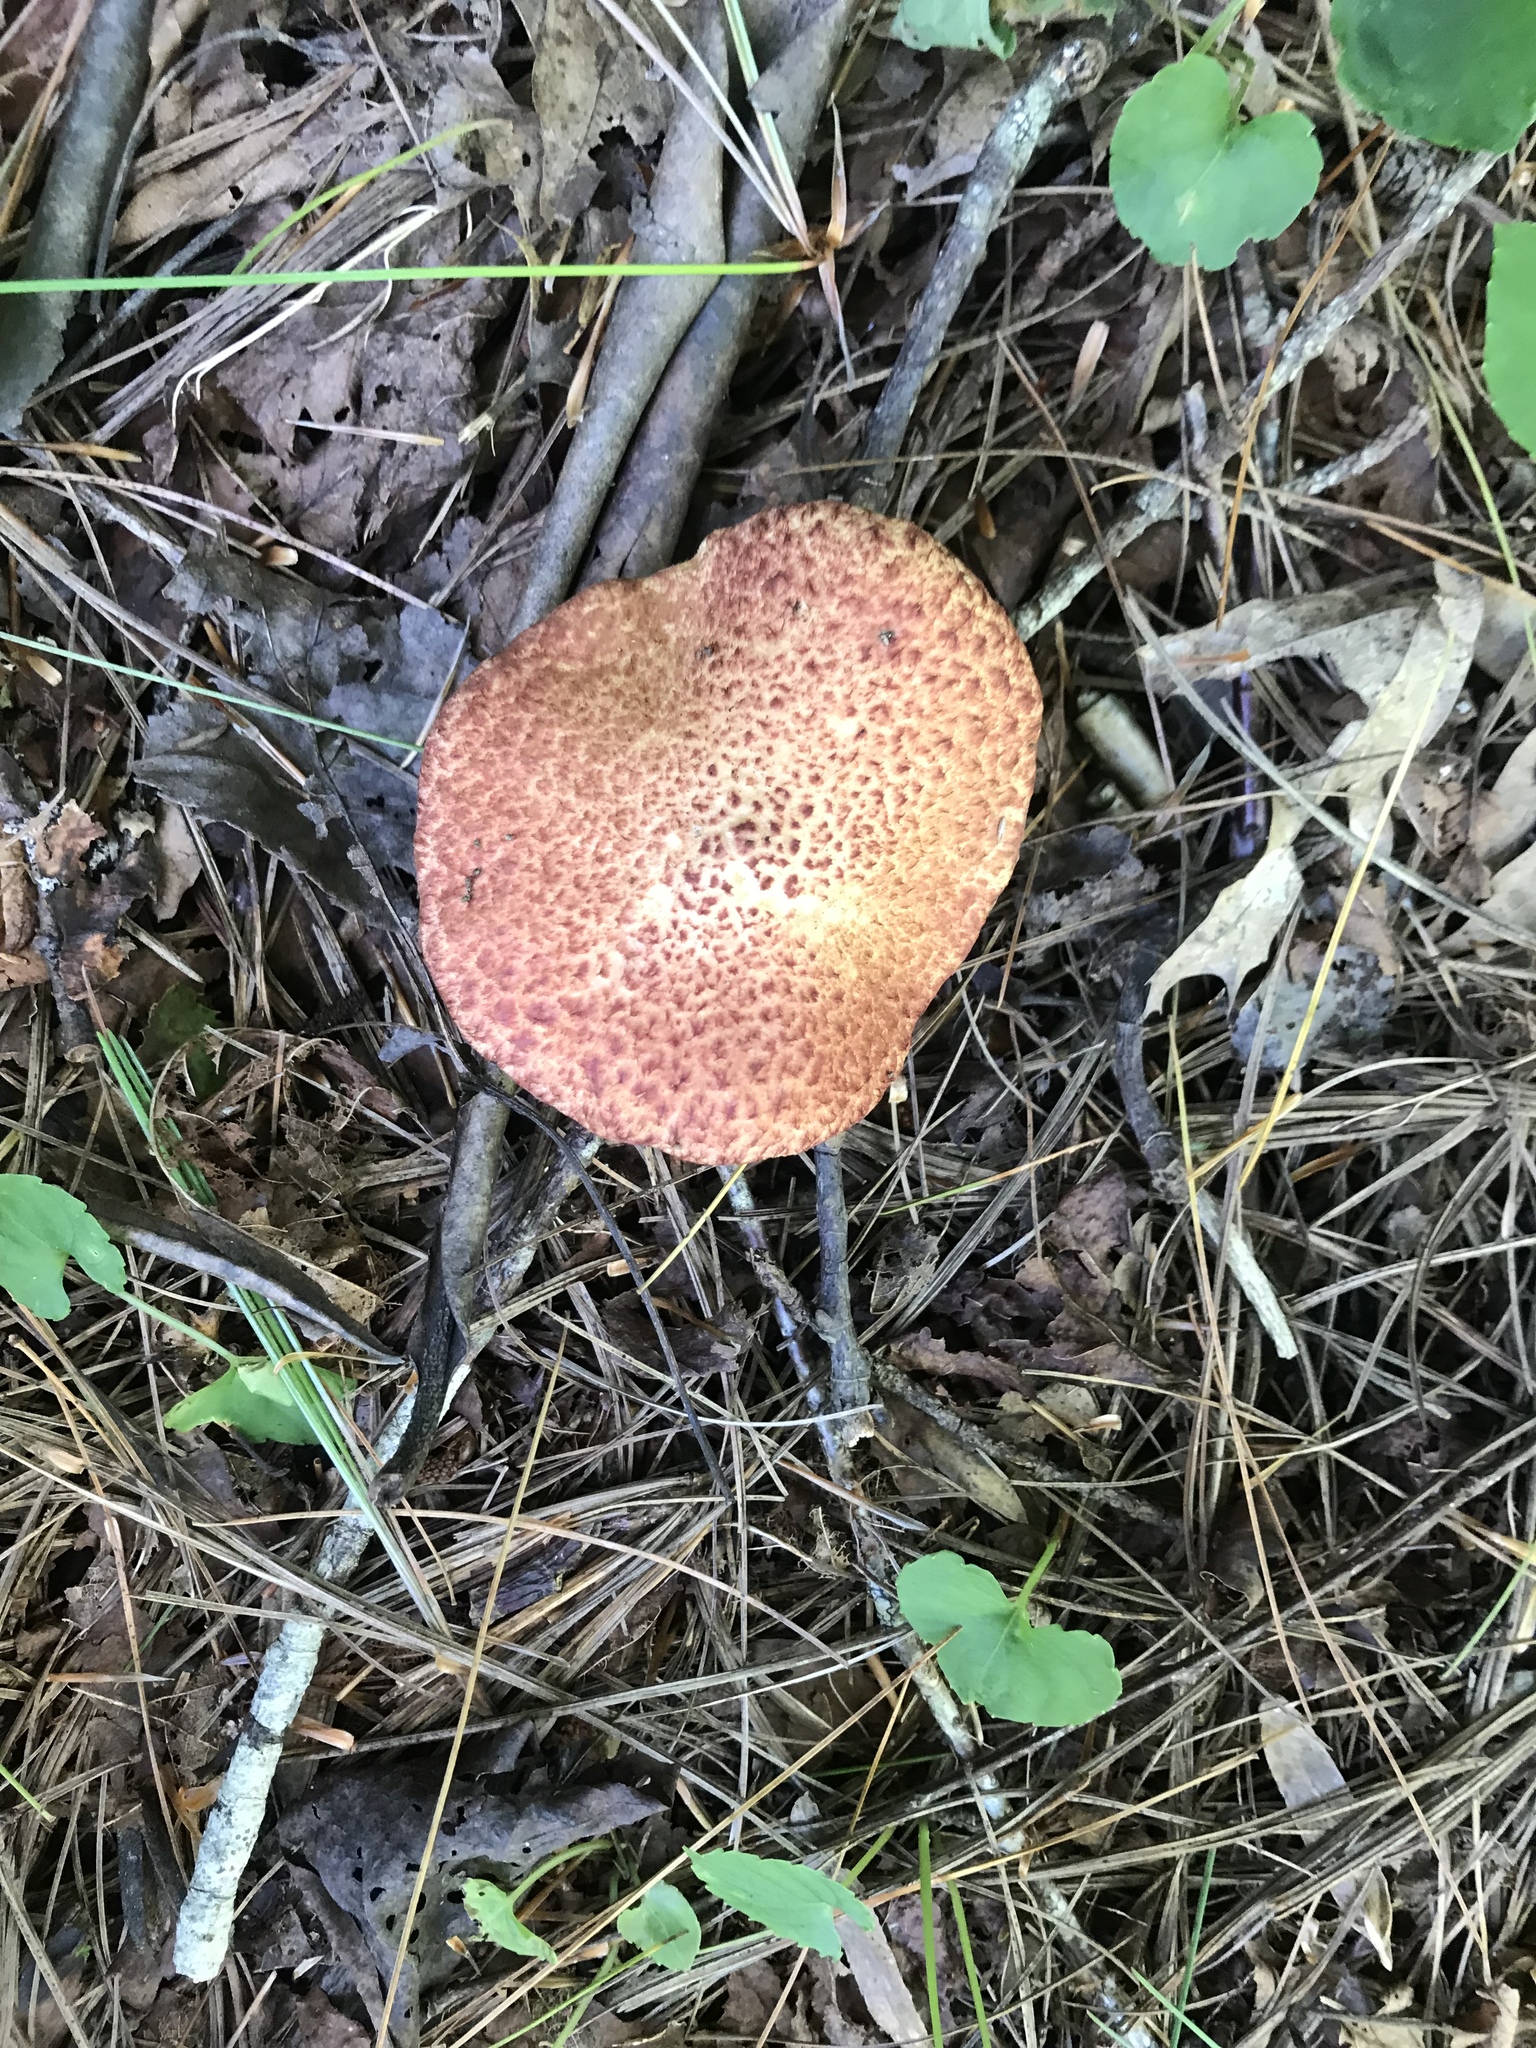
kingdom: Fungi
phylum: Basidiomycota
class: Agaricomycetes
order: Boletales
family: Suillaceae
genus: Suillus
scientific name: Suillus spraguei
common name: Painted suillus
